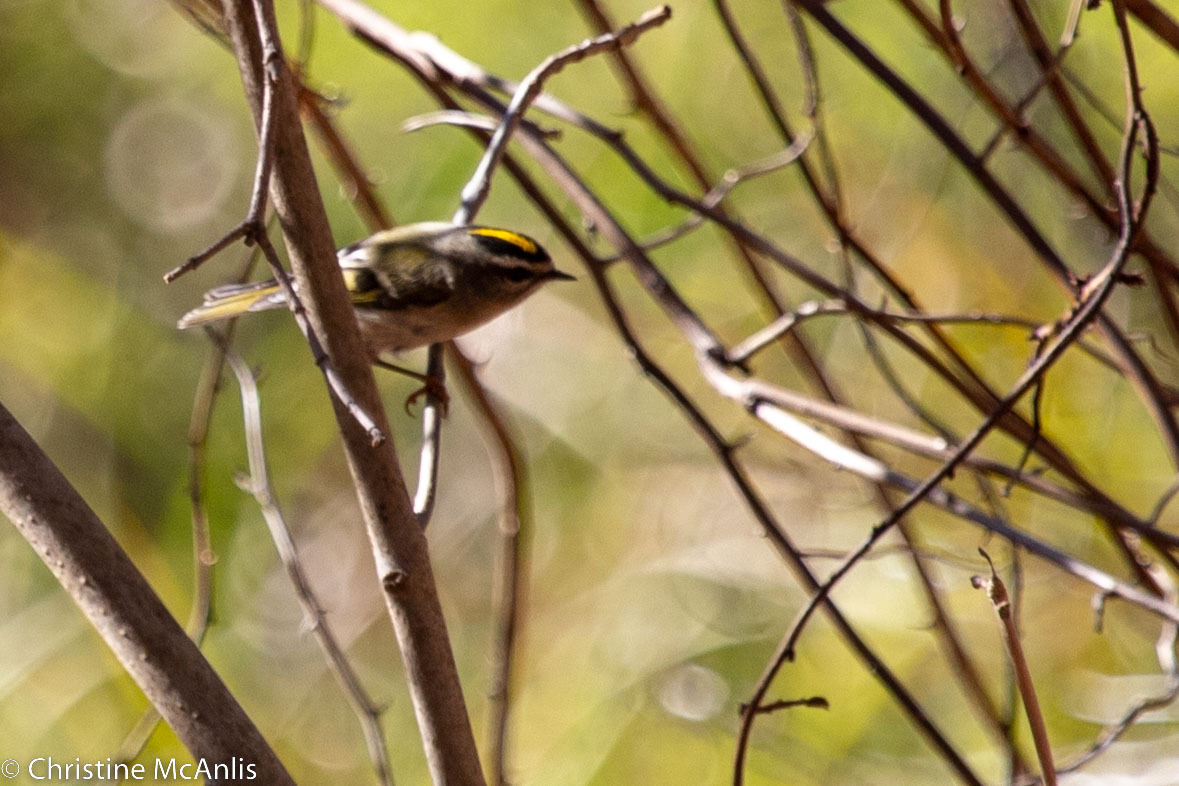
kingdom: Animalia
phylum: Chordata
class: Aves
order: Passeriformes
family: Regulidae
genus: Regulus
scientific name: Regulus satrapa
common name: Golden-crowned kinglet
